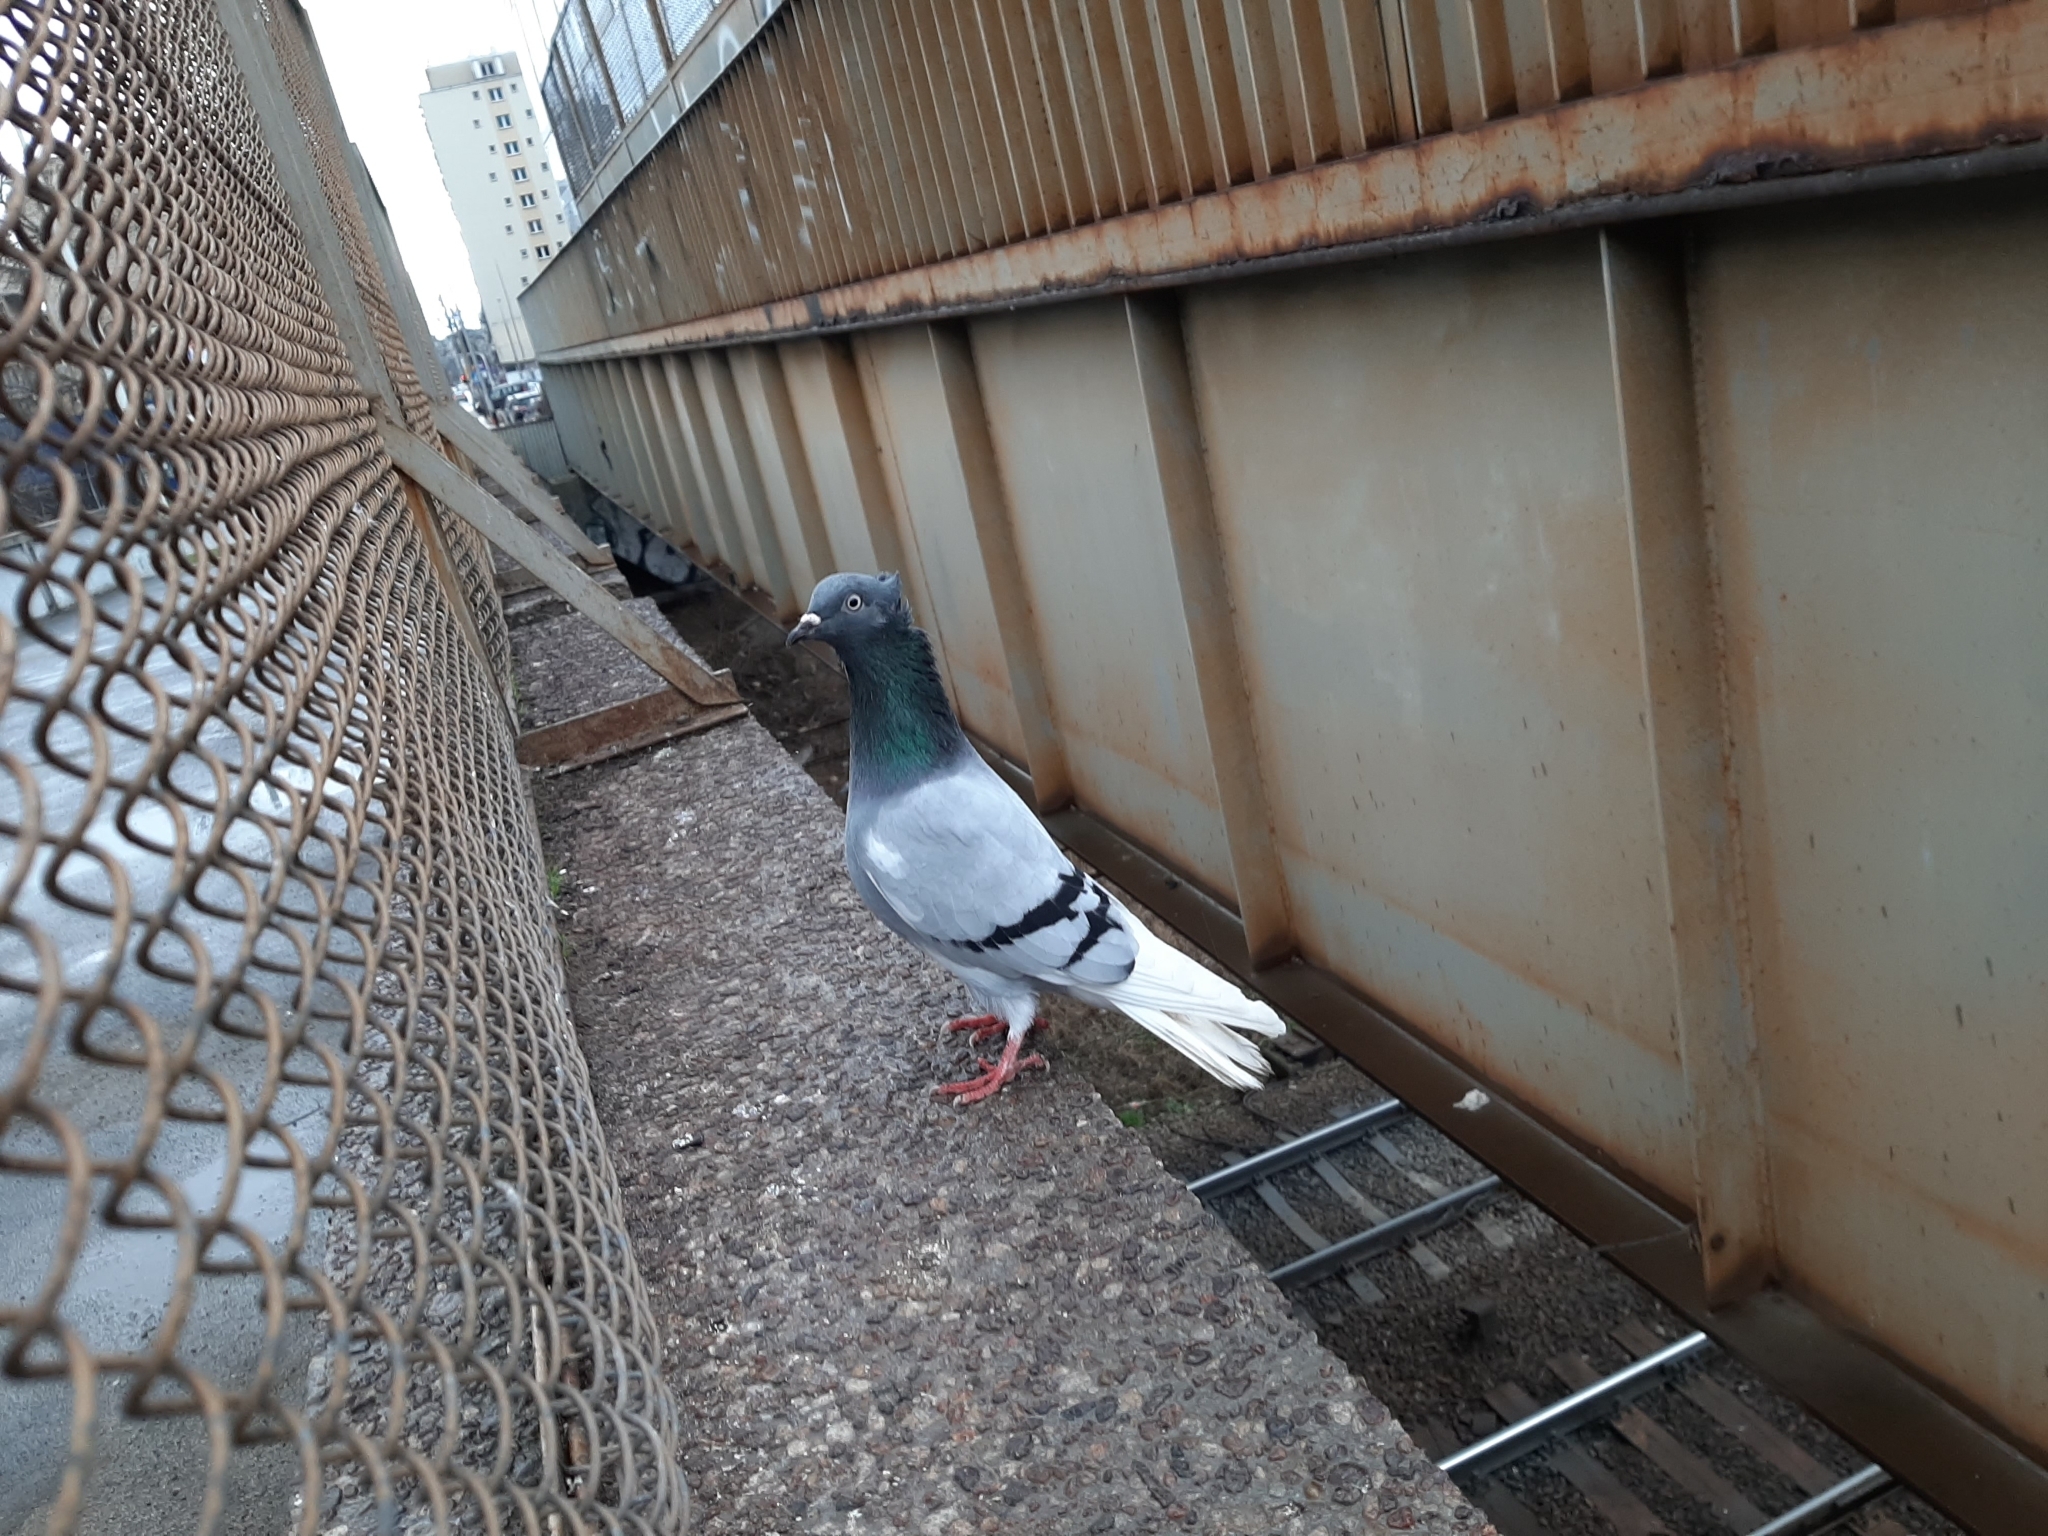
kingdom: Animalia
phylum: Chordata
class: Aves
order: Columbiformes
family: Columbidae
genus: Columba
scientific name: Columba livia
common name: Rock pigeon
